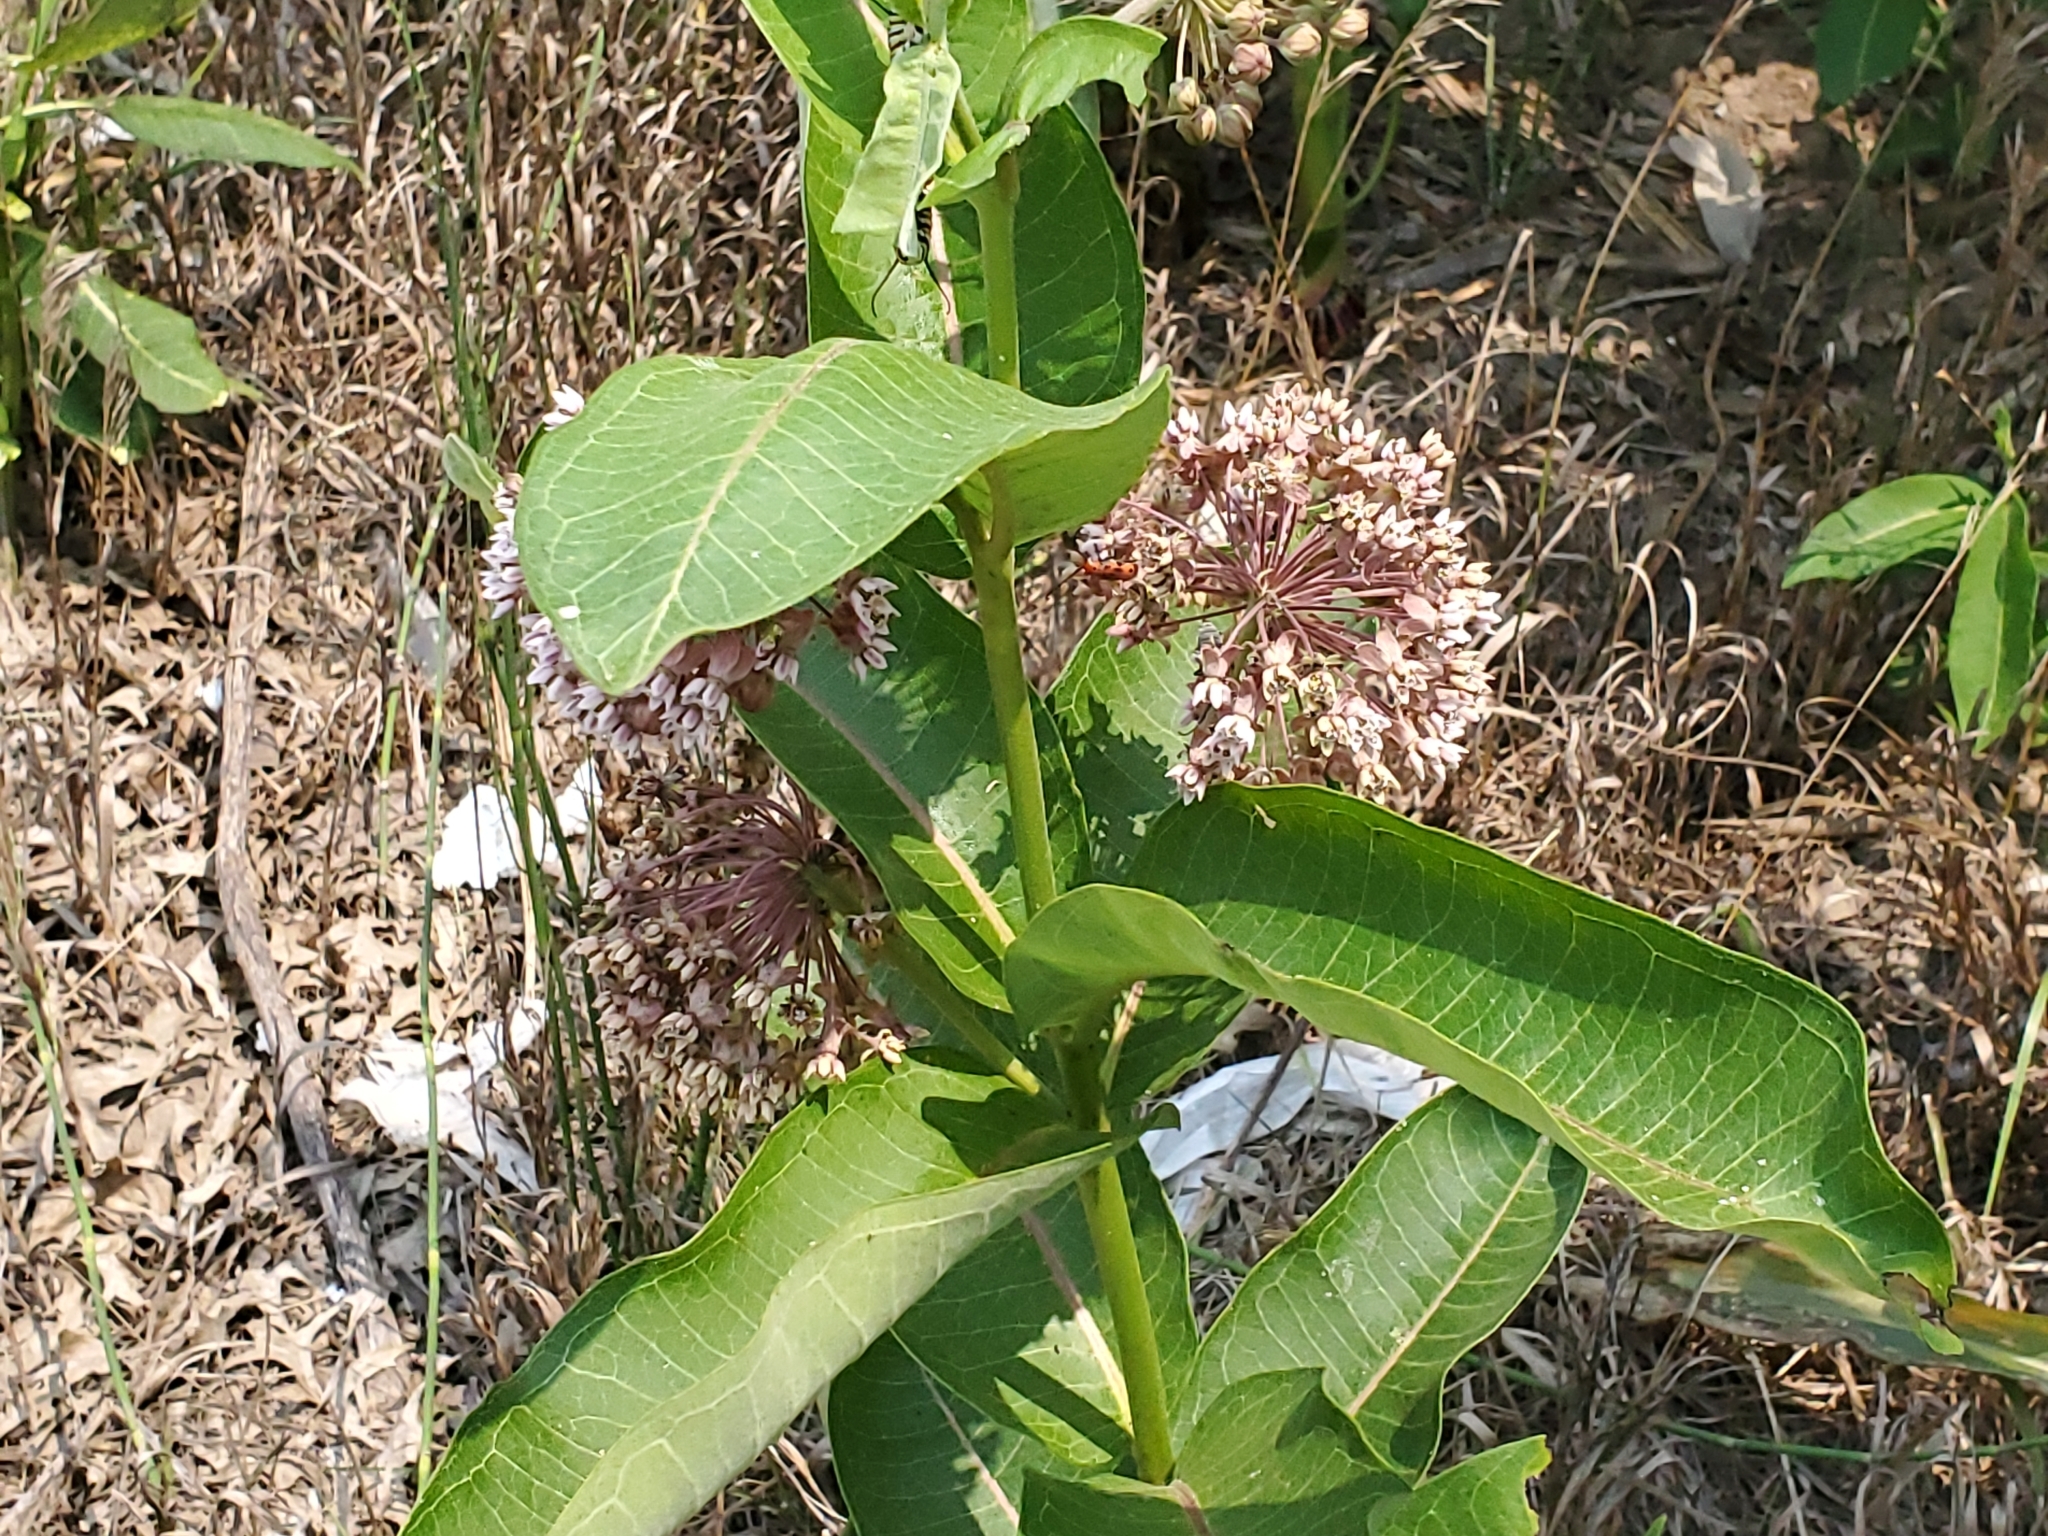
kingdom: Plantae
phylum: Tracheophyta
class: Magnoliopsida
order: Gentianales
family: Apocynaceae
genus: Asclepias
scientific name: Asclepias syriaca
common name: Common milkweed
